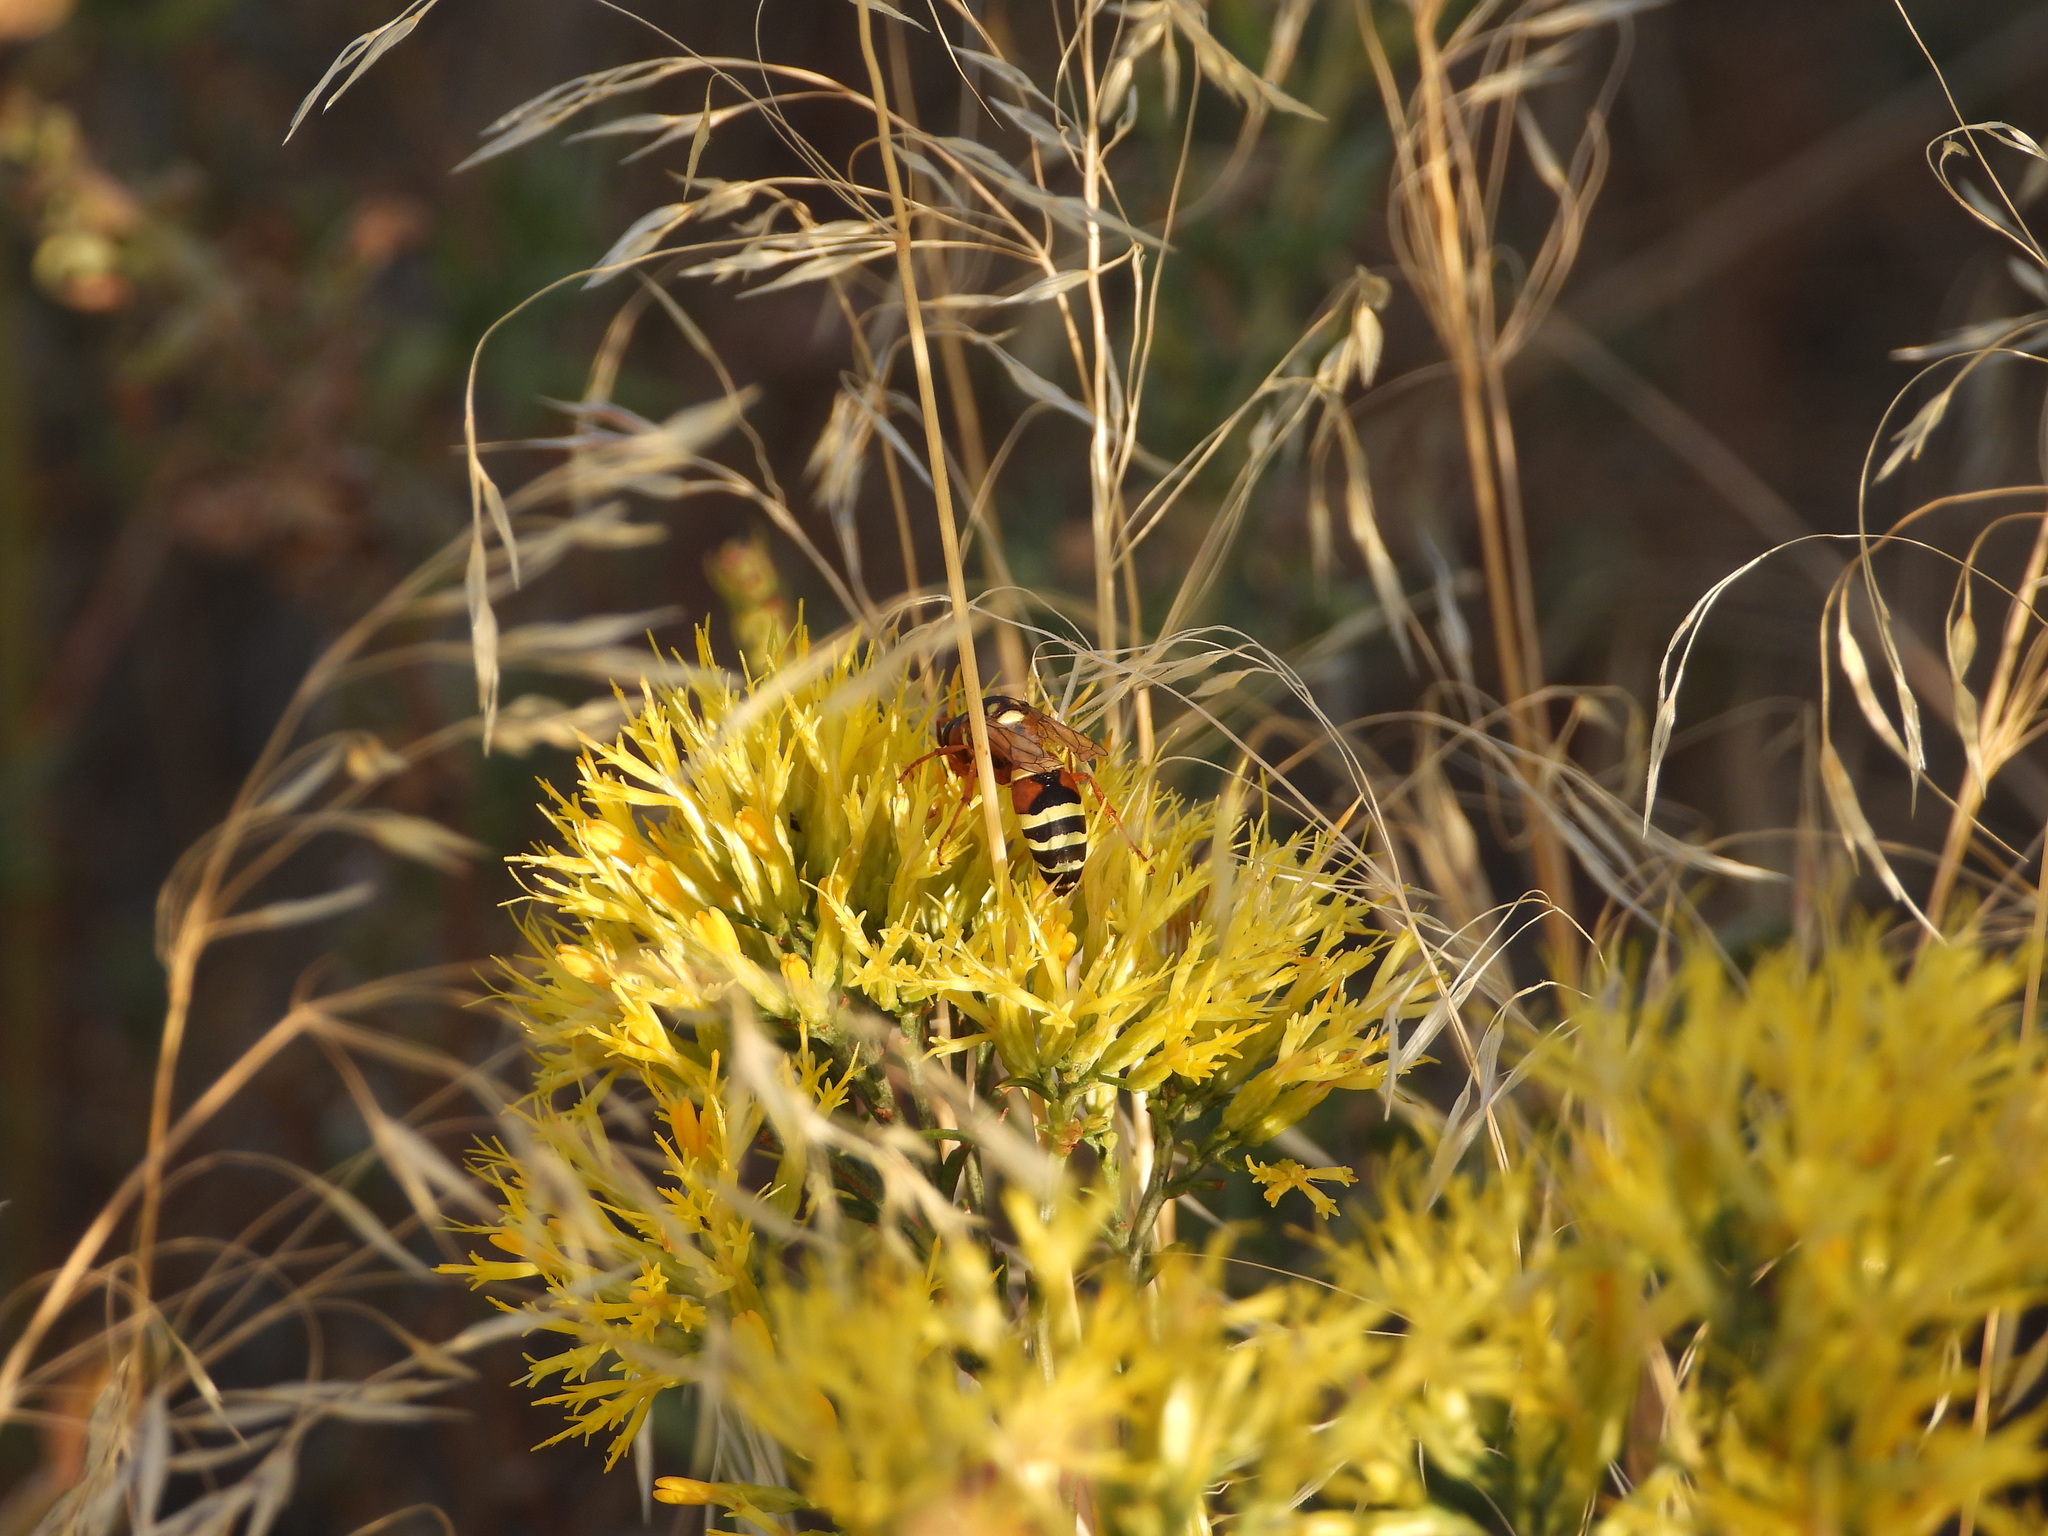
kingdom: Animalia
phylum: Arthropoda
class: Insecta
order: Hymenoptera
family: Eumenidae
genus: Pterocheilus
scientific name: Pterocheilus quinquefasciatus
